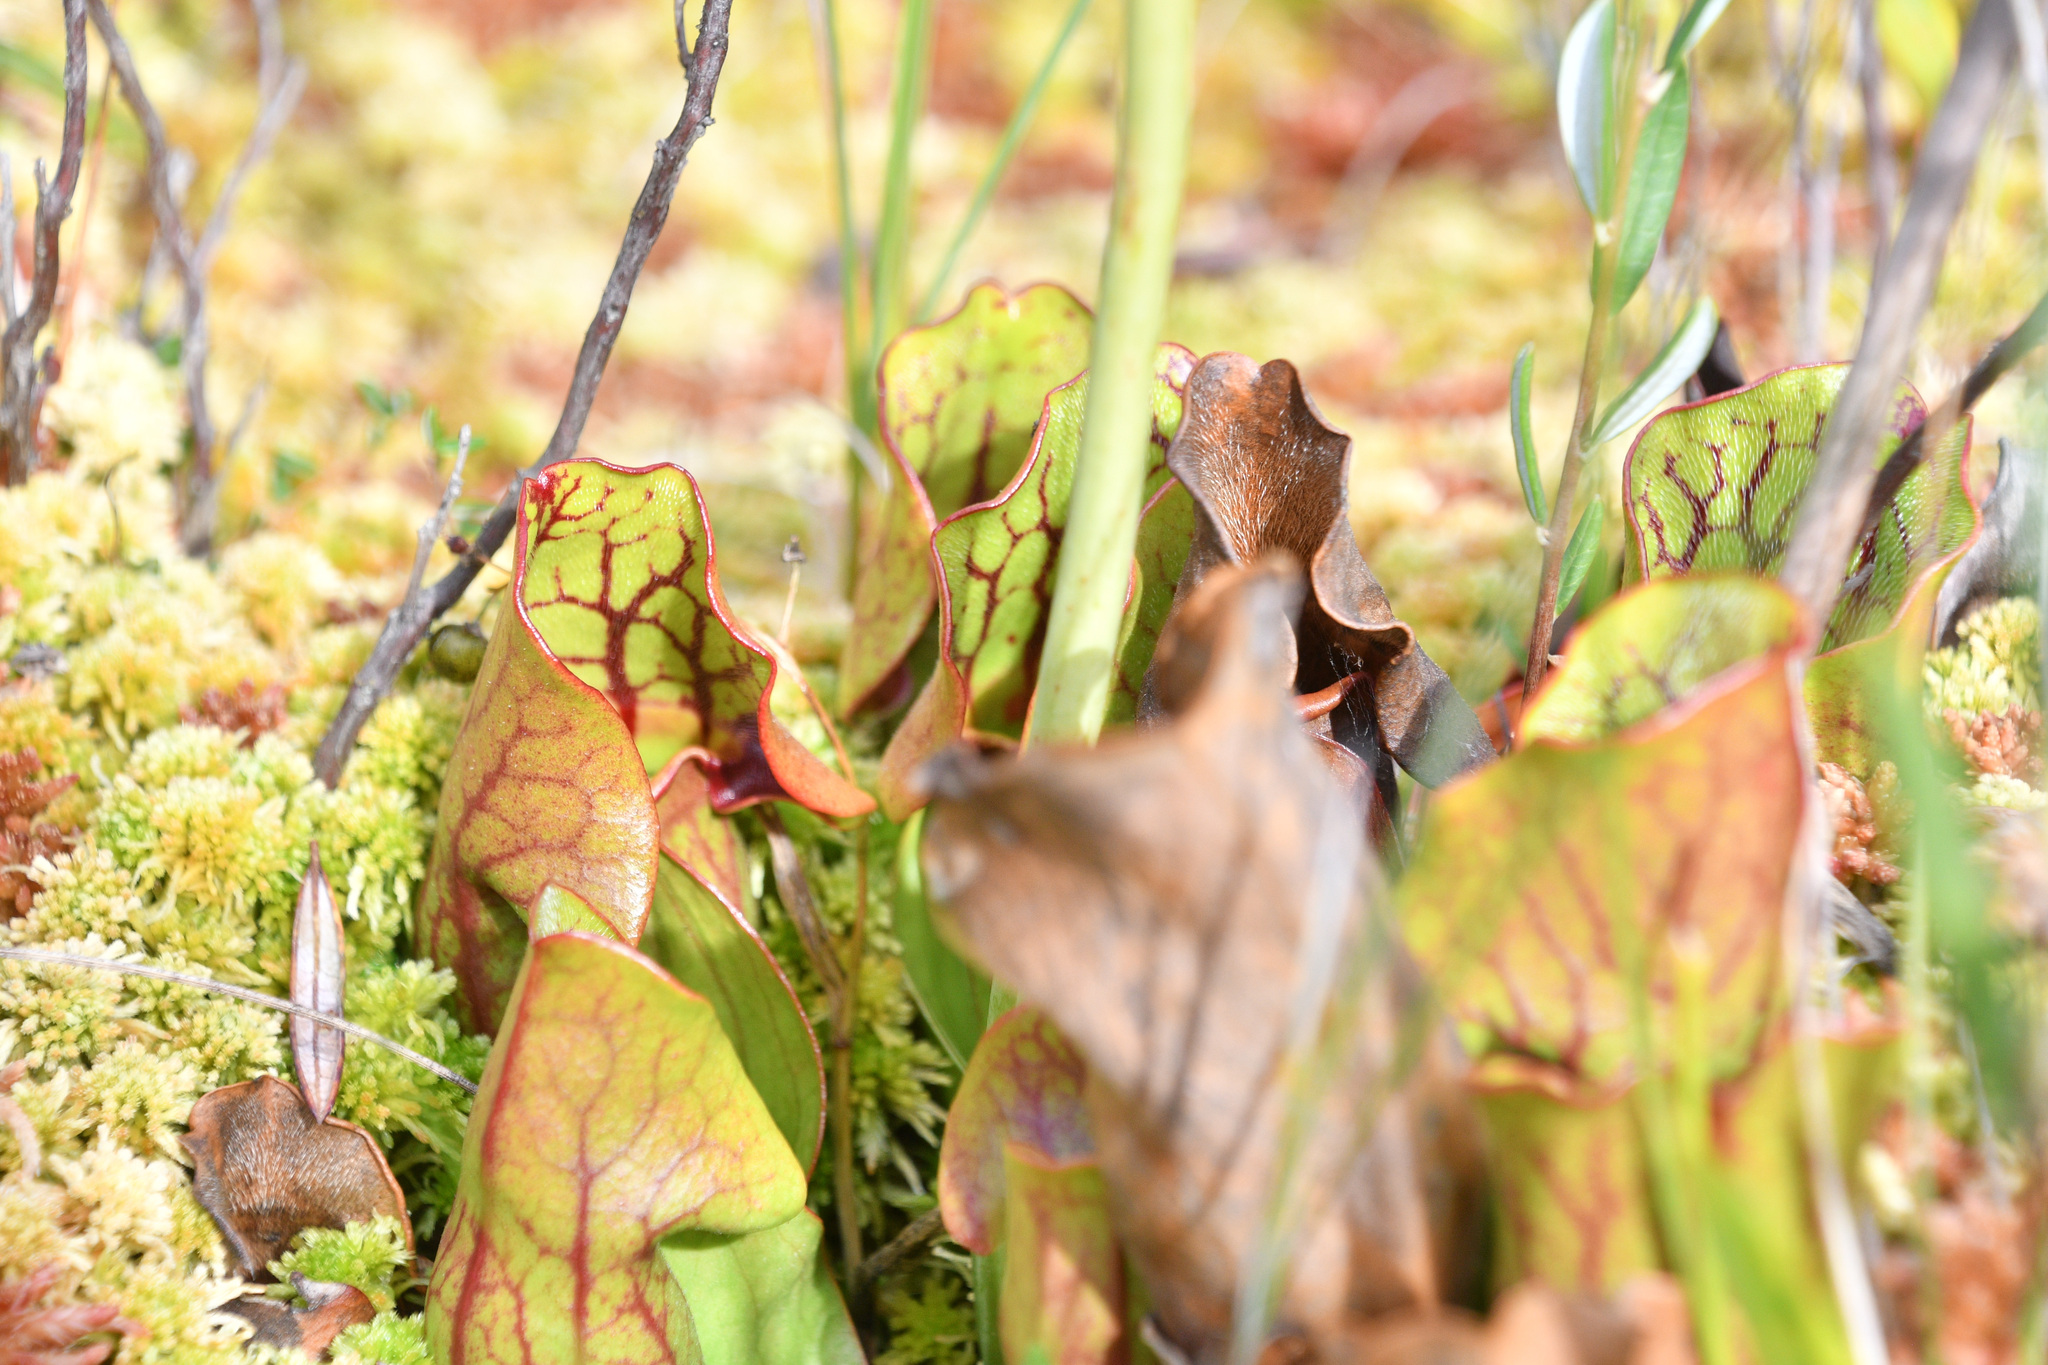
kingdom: Plantae
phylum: Tracheophyta
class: Magnoliopsida
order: Ericales
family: Sarraceniaceae
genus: Sarracenia
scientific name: Sarracenia purpurea
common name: Pitcherplant
